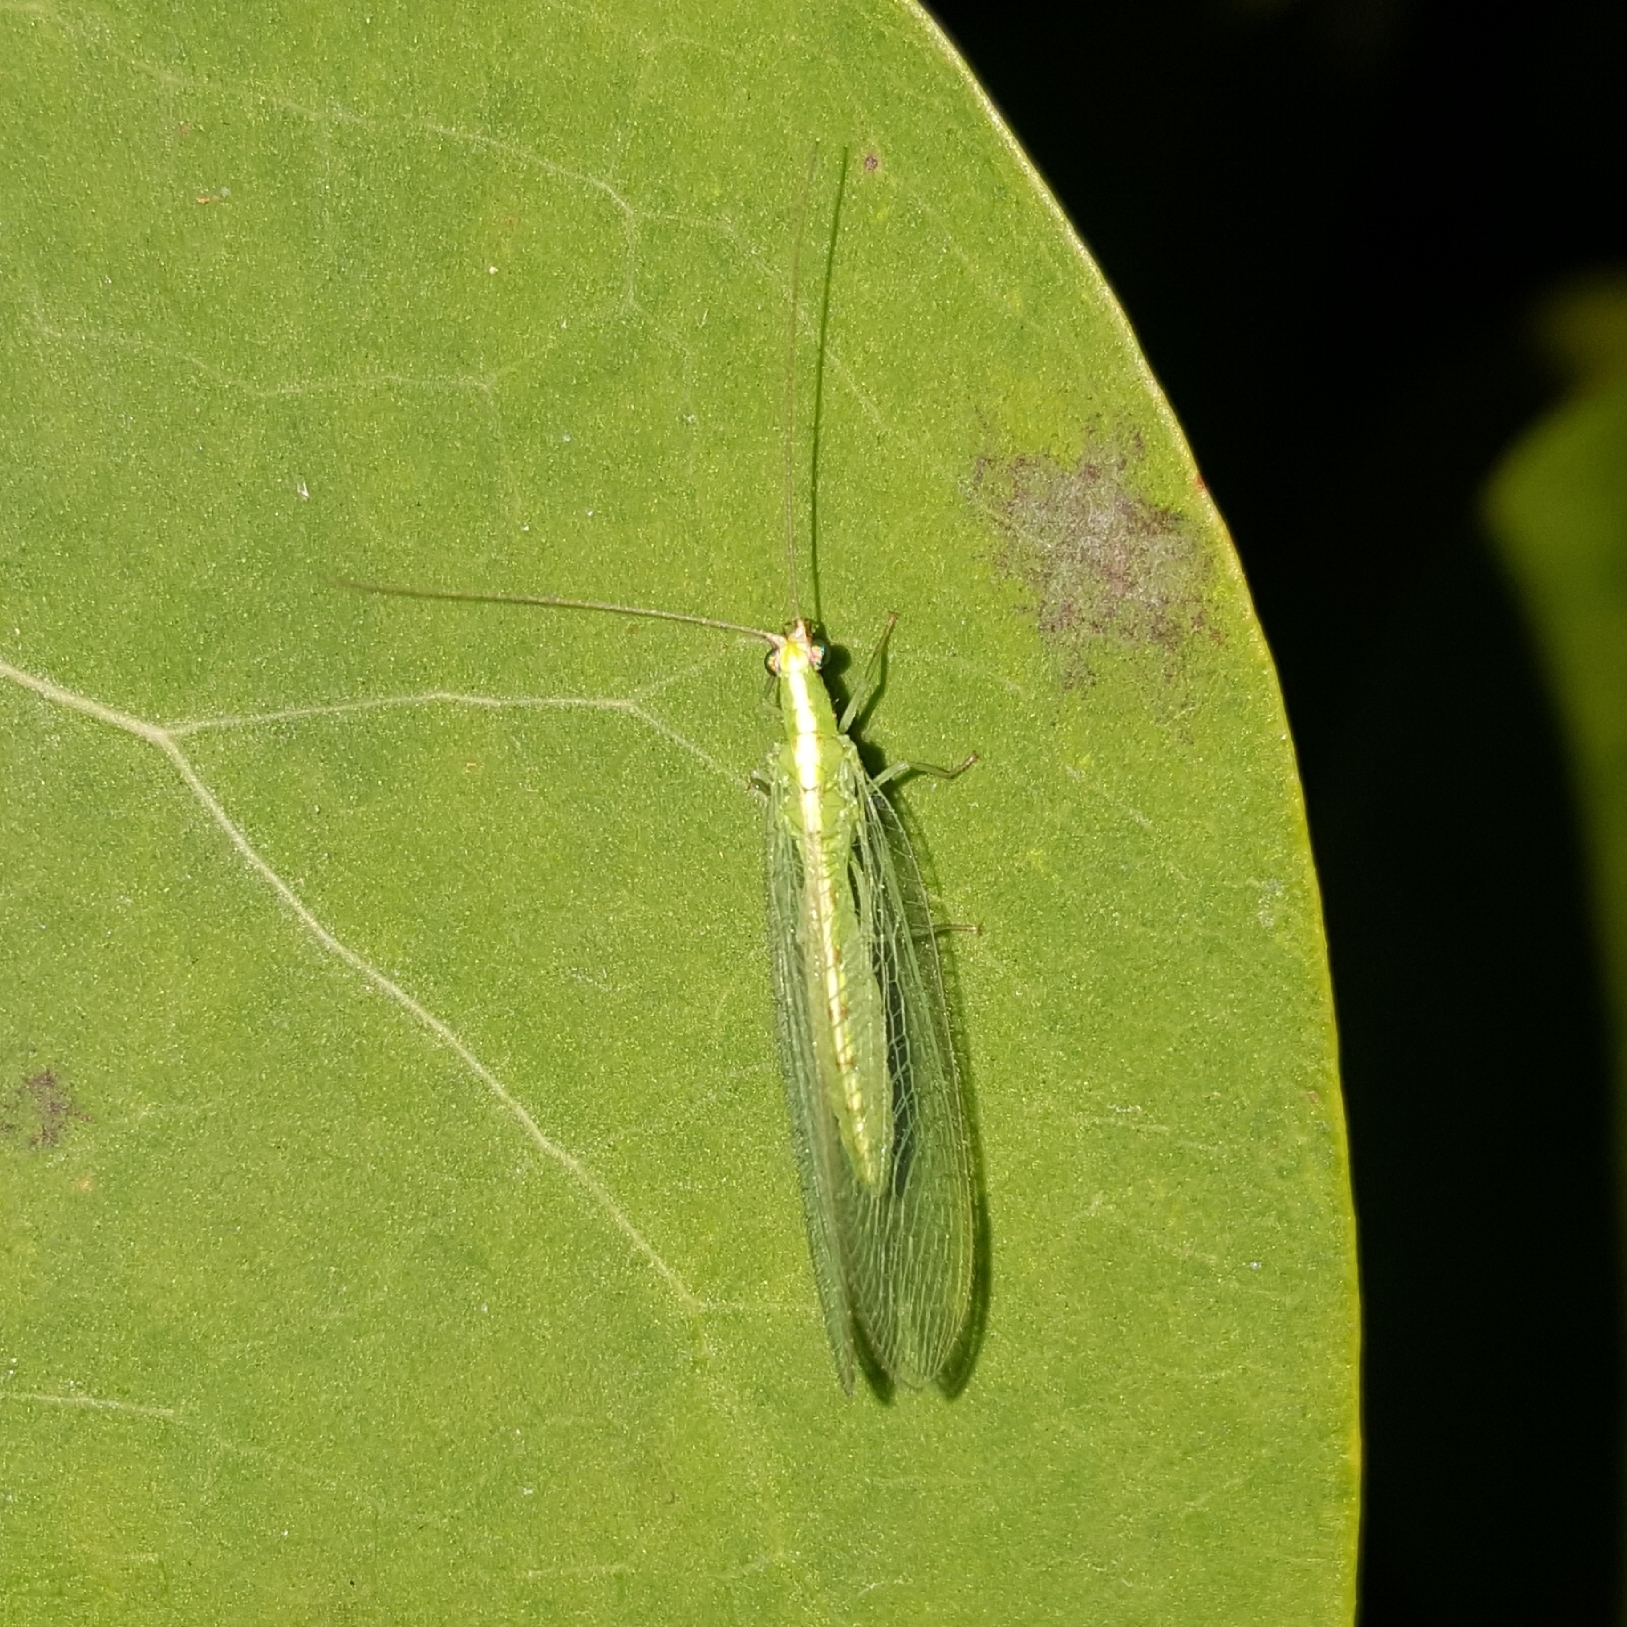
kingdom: Animalia
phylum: Arthropoda
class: Insecta
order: Neuroptera
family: Chrysopidae
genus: Chrysoperla
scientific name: Chrysoperla
